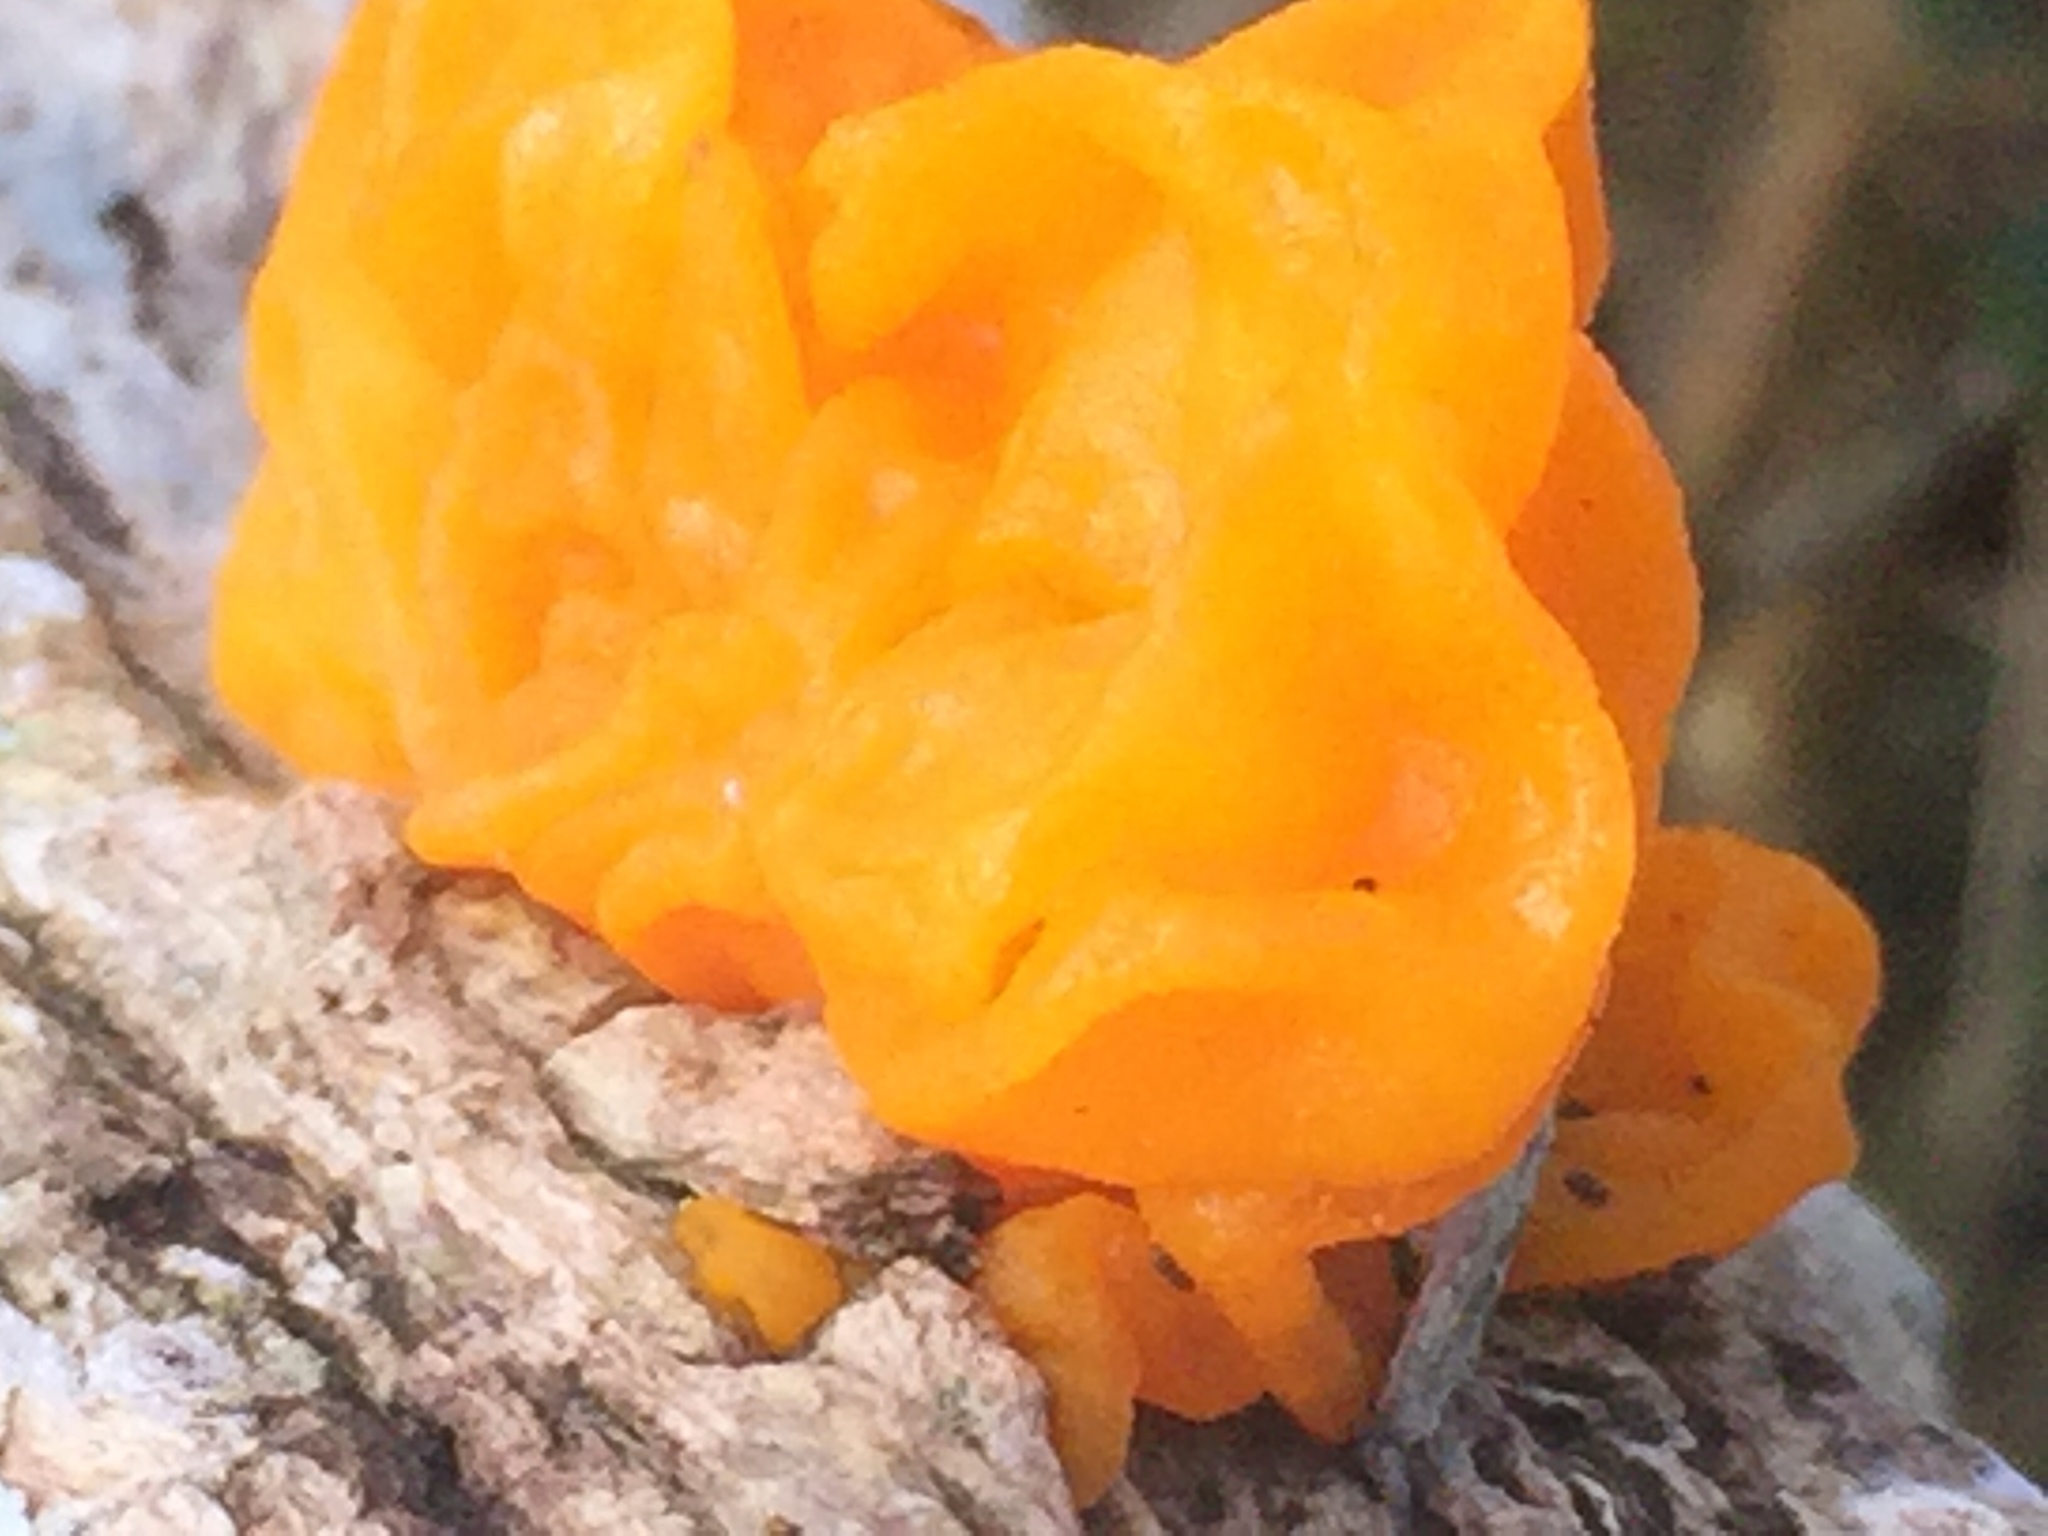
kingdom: Fungi
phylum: Basidiomycota
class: Tremellomycetes
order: Tremellales
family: Tremellaceae
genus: Tremella
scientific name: Tremella mesenterica
